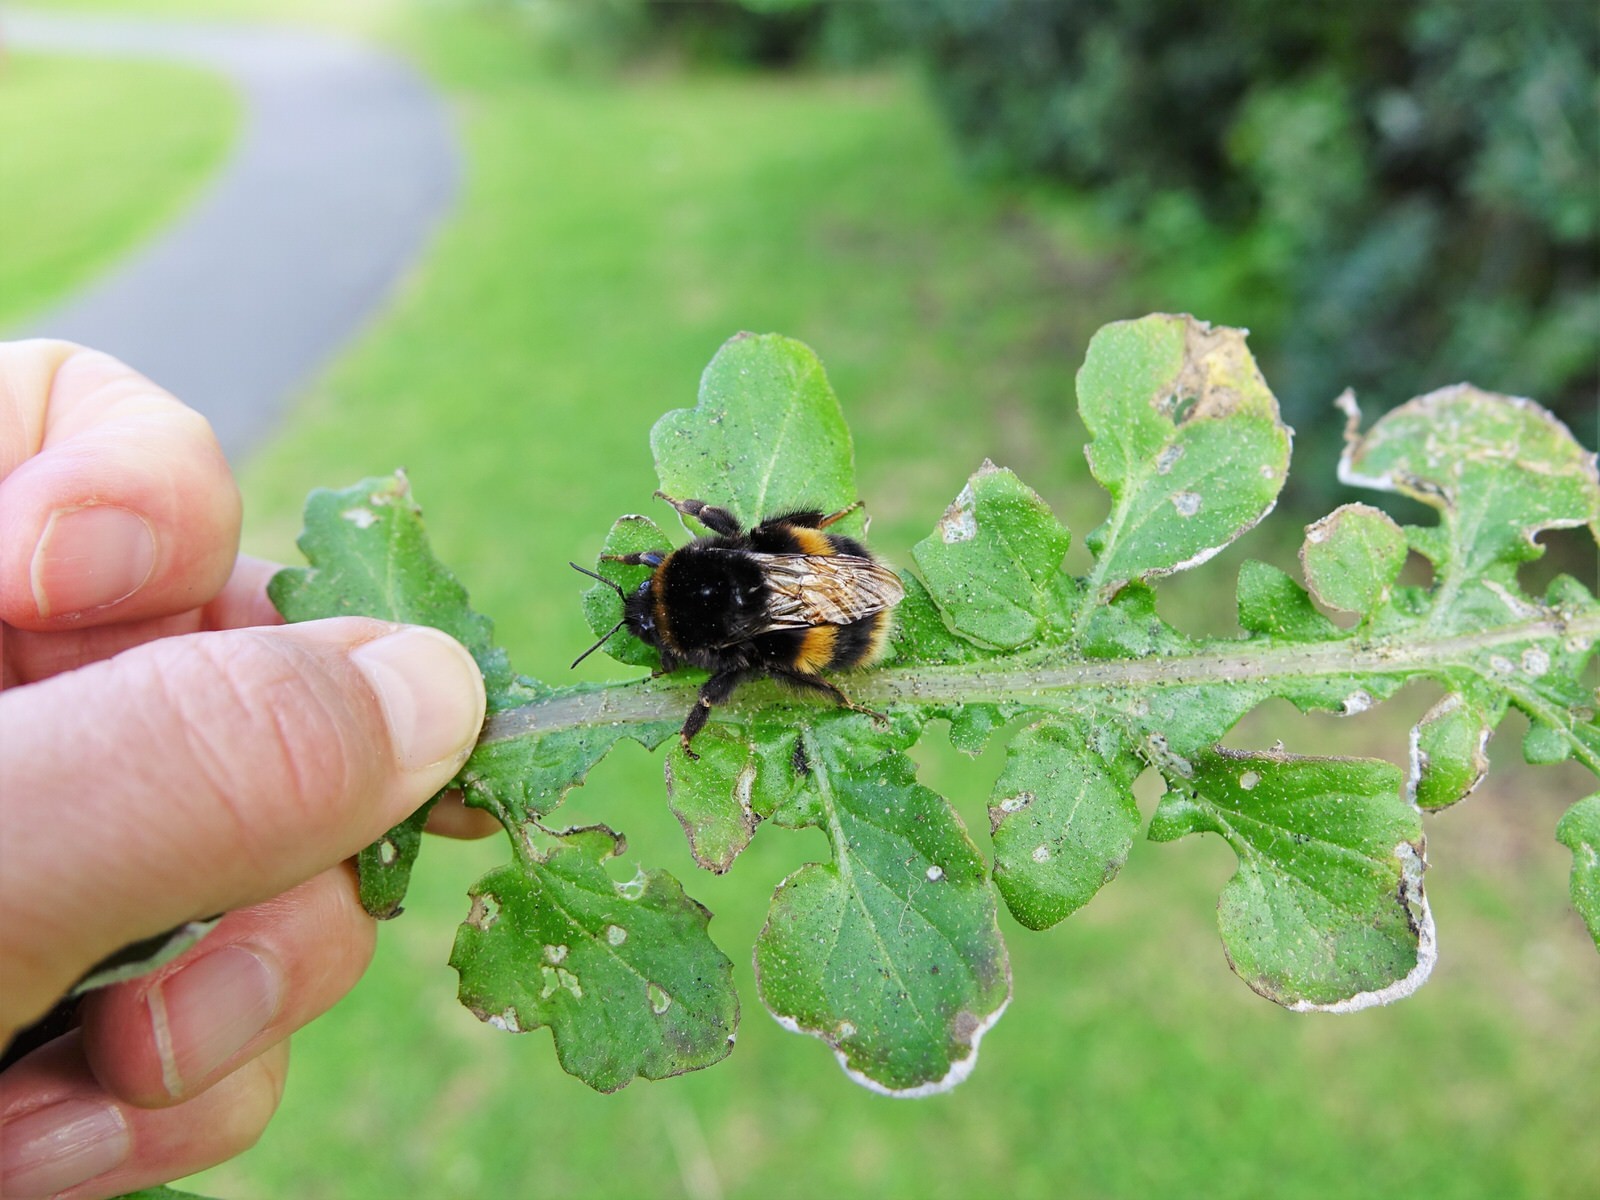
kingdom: Animalia
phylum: Arthropoda
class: Insecta
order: Hymenoptera
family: Apidae
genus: Bombus
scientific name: Bombus terrestris
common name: Buff-tailed bumblebee
